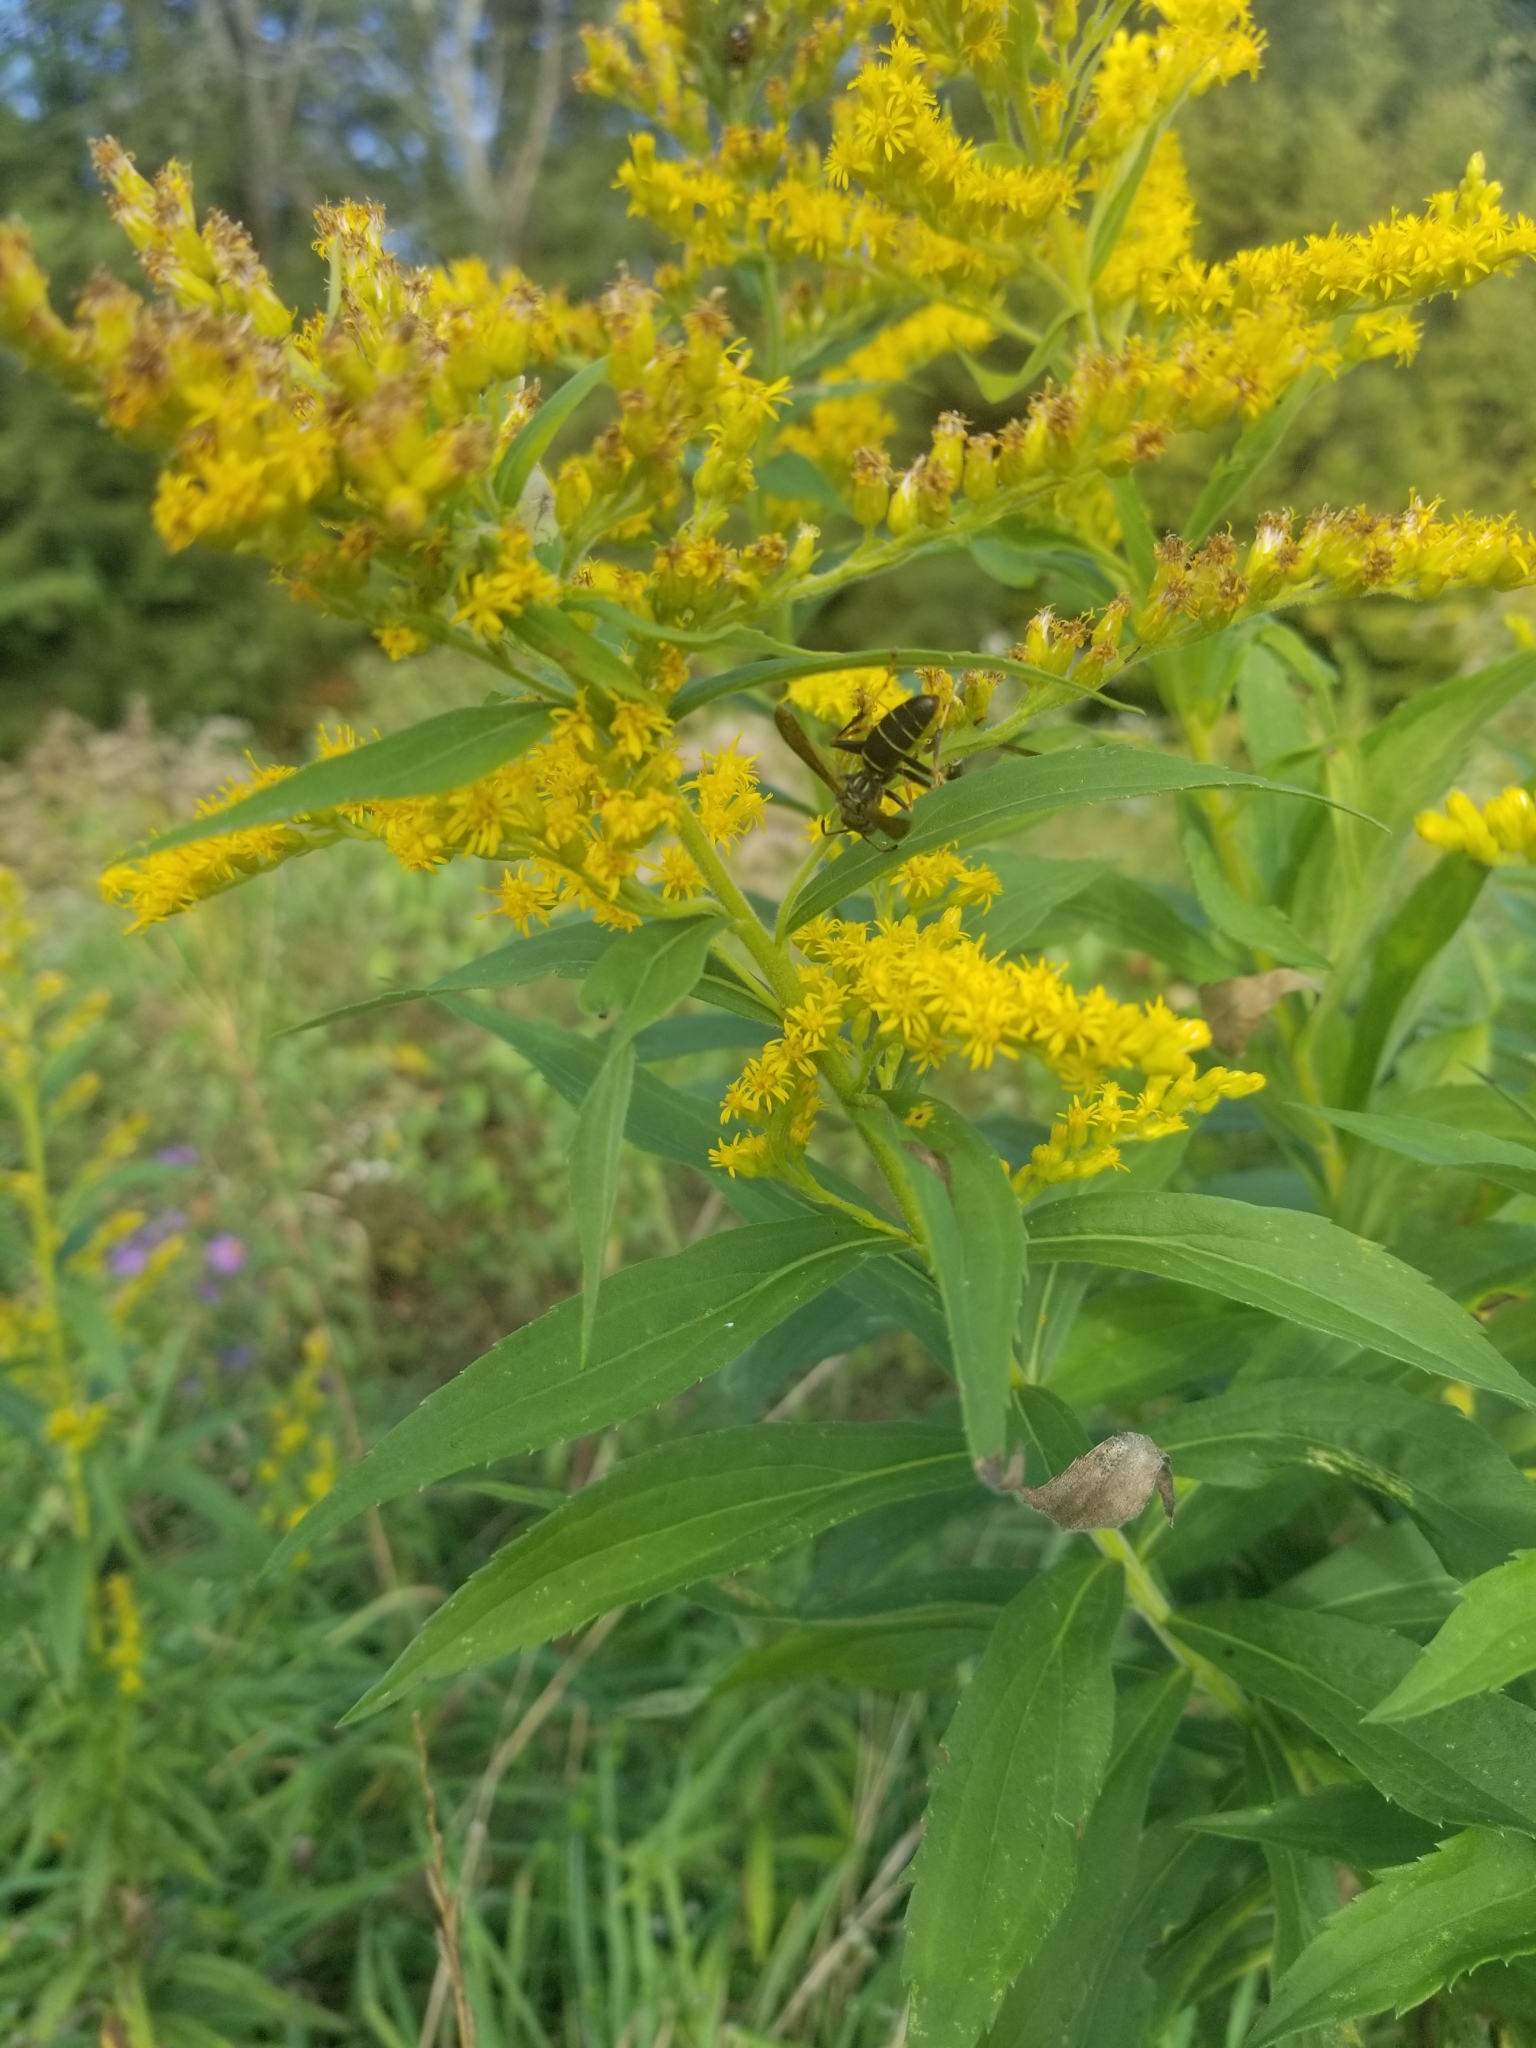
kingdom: Animalia
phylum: Arthropoda
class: Insecta
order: Hymenoptera
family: Eumenidae
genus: Polistes
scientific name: Polistes fuscatus
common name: Dark paper wasp
